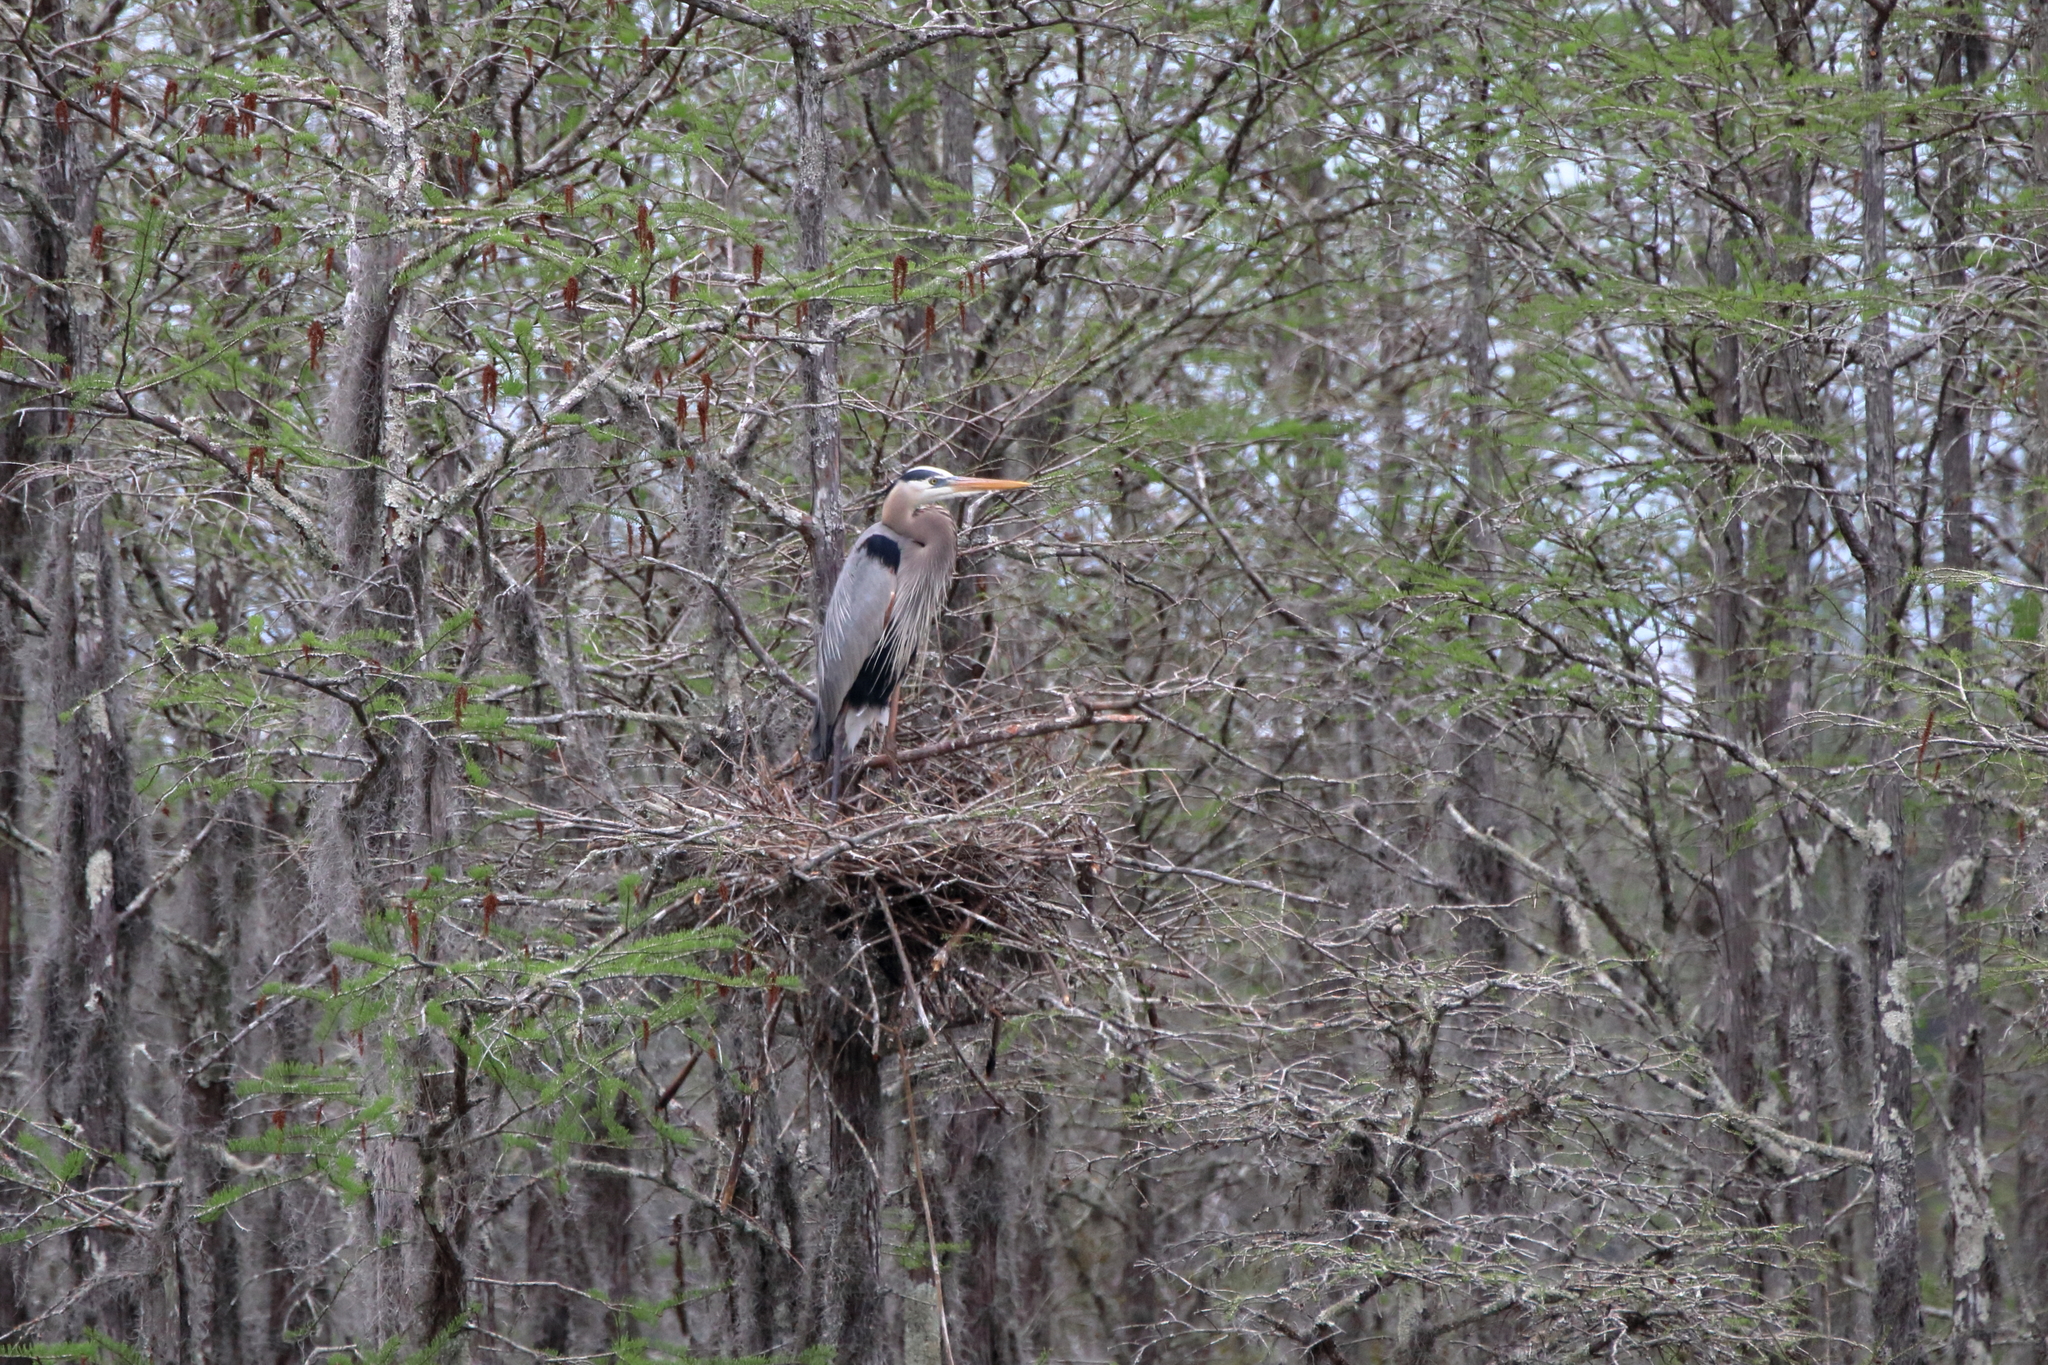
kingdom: Animalia
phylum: Chordata
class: Aves
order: Pelecaniformes
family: Ardeidae
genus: Ardea
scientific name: Ardea herodias
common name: Great blue heron
